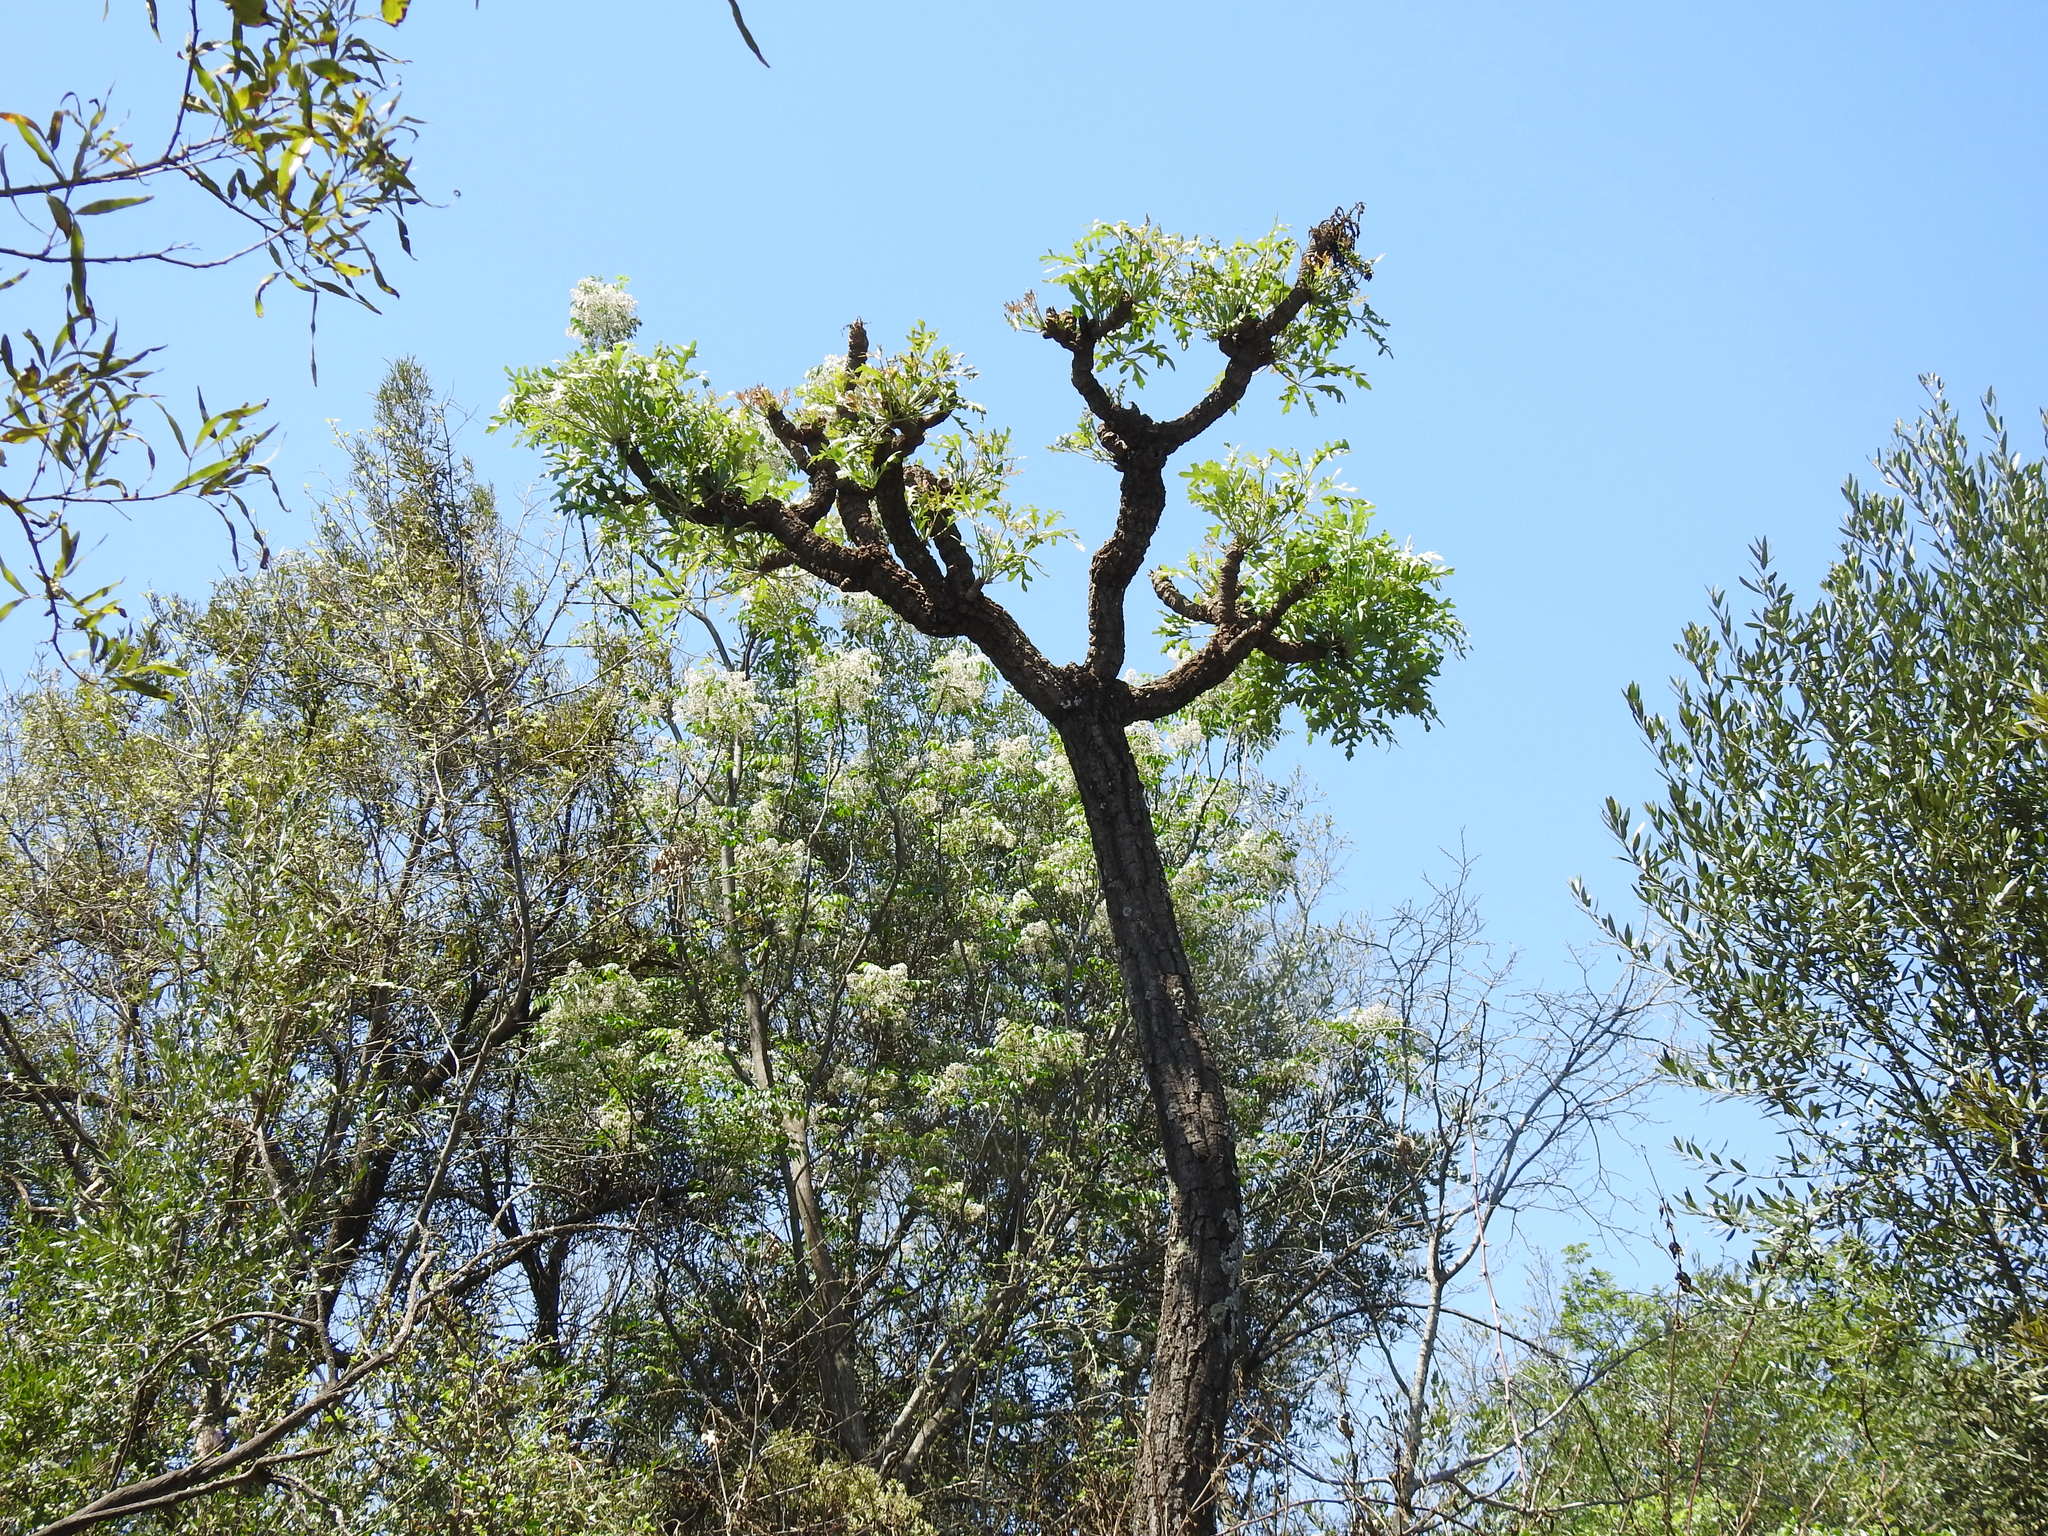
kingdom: Plantae
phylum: Tracheophyta
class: Magnoliopsida
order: Apiales
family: Araliaceae
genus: Cussonia
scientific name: Cussonia paniculata
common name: Cabbagetree
